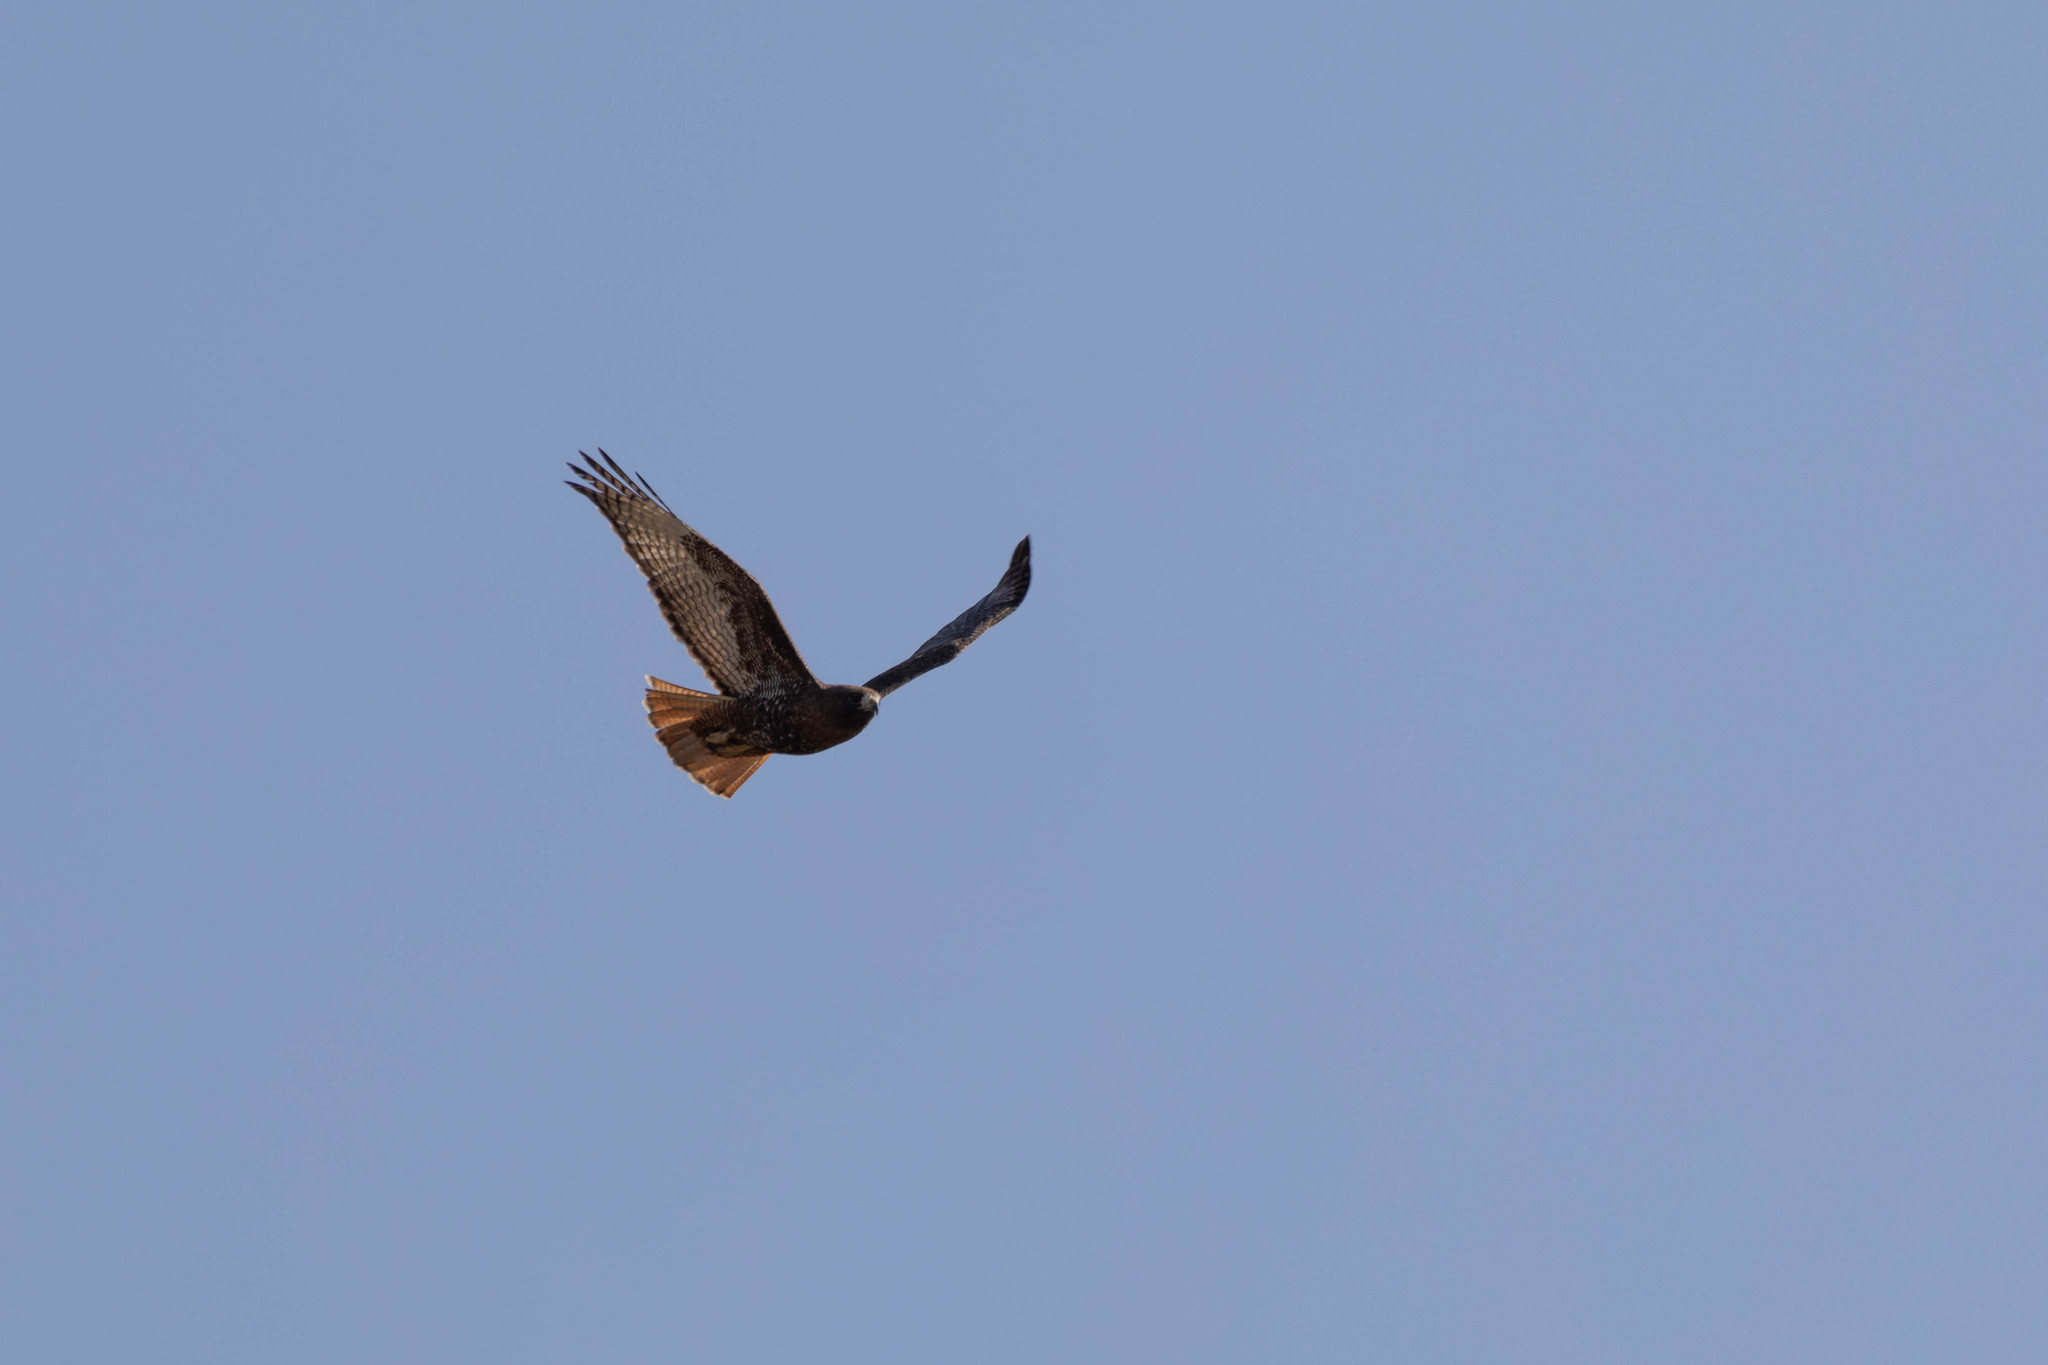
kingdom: Animalia
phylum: Chordata
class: Aves
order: Accipitriformes
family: Accipitridae
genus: Buteo
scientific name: Buteo jamaicensis
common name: Red-tailed hawk
